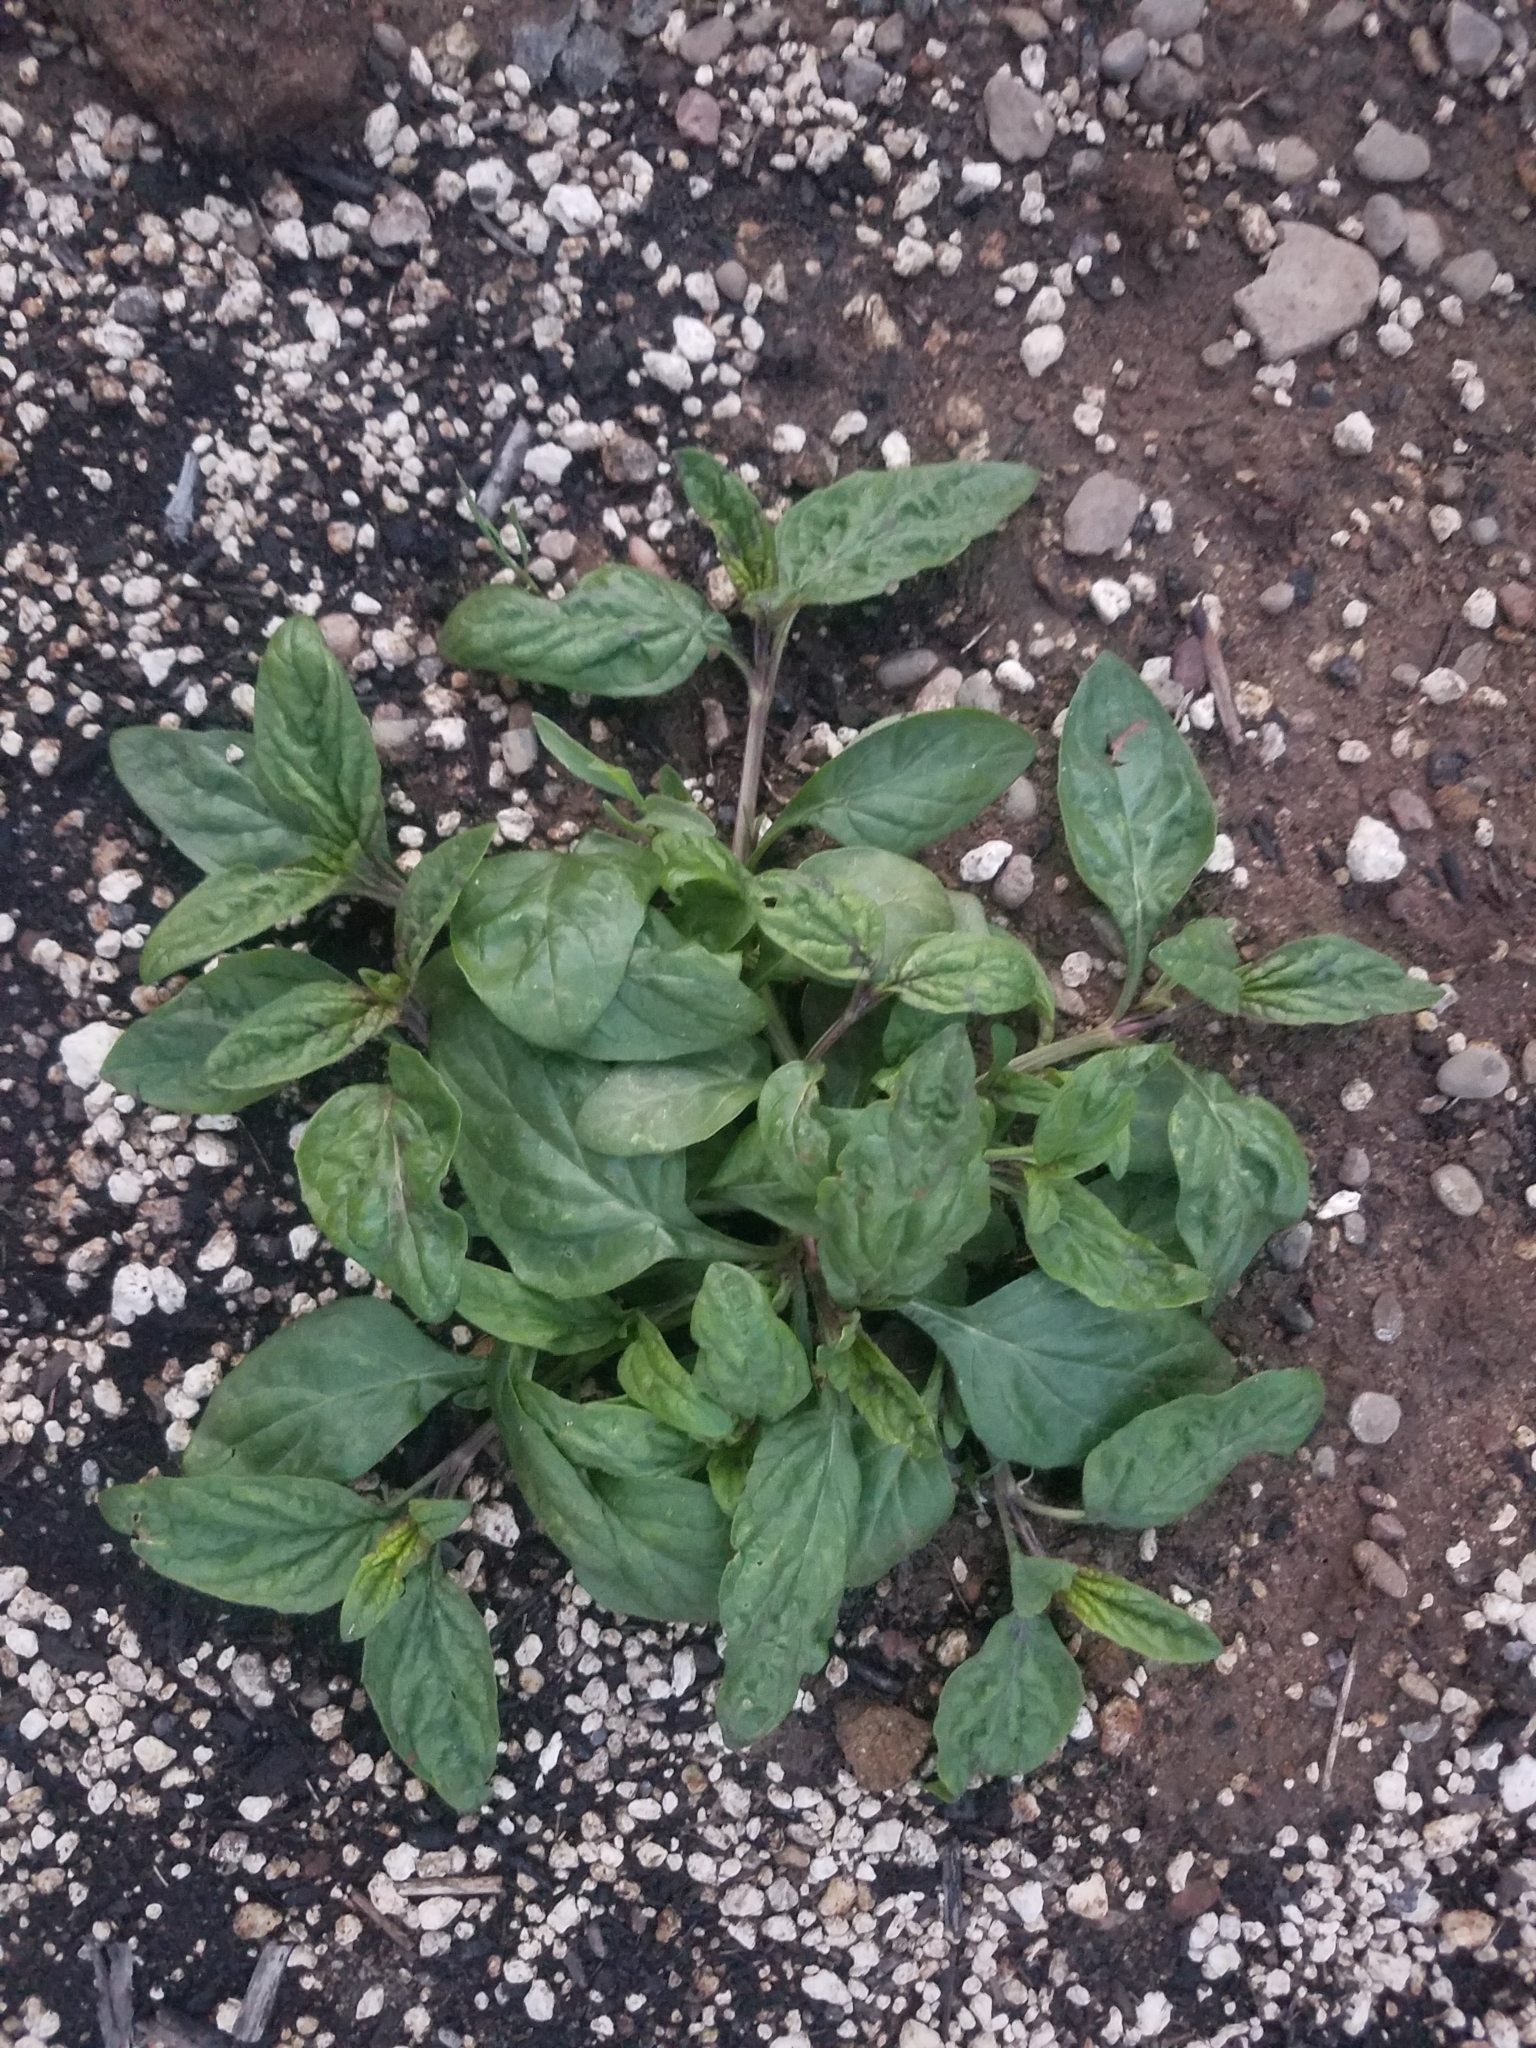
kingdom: Plantae
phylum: Tracheophyta
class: Magnoliopsida
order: Lamiales
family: Lamiaceae
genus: Prunella
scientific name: Prunella vulgaris
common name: Heal-all
